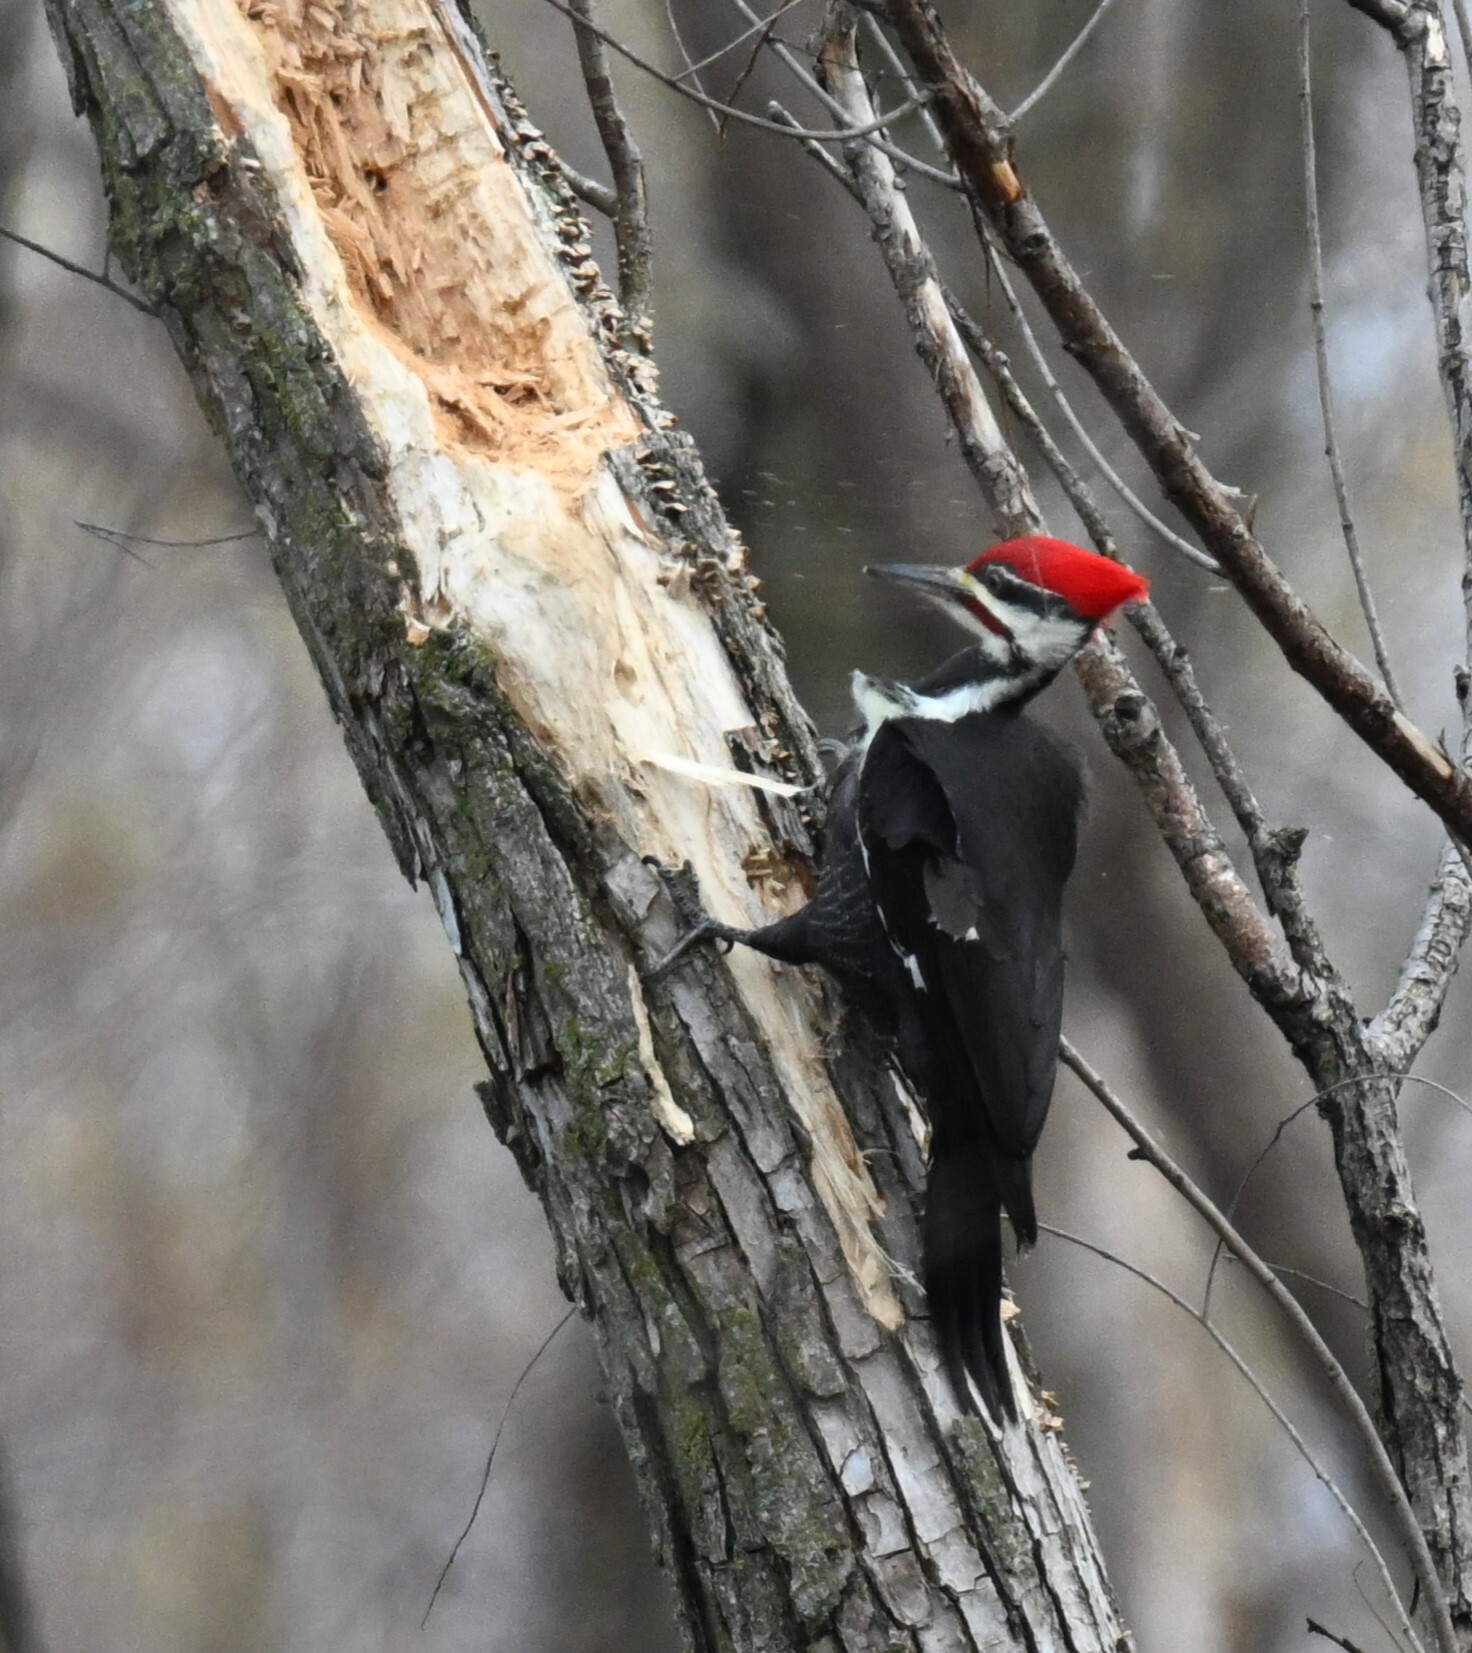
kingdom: Animalia
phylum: Chordata
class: Aves
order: Piciformes
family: Picidae
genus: Dryocopus
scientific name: Dryocopus pileatus
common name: Pileated woodpecker
